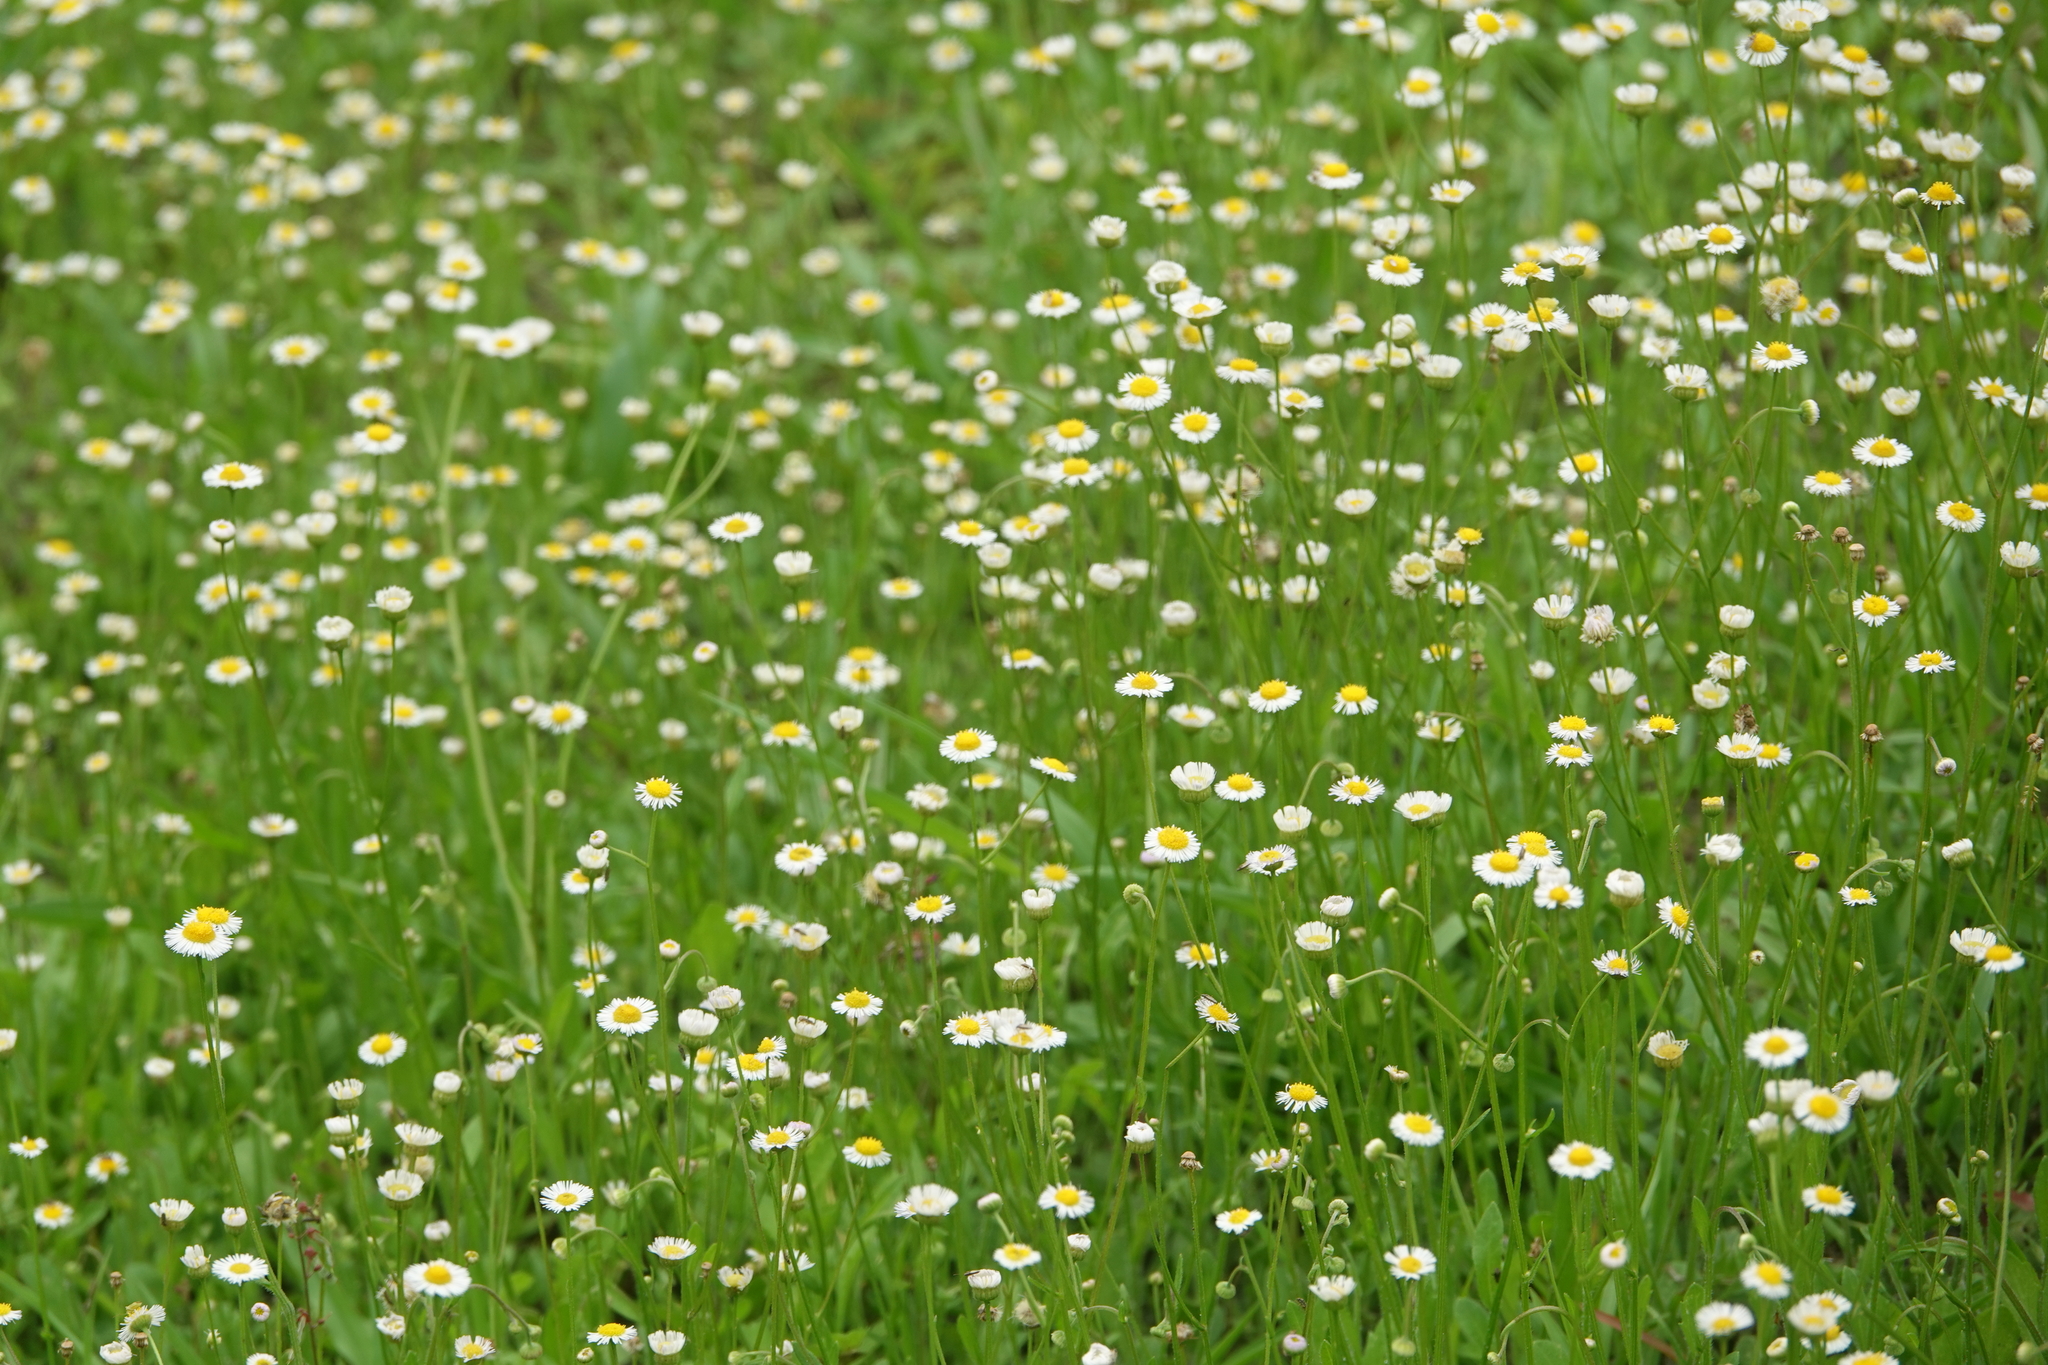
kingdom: Plantae
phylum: Tracheophyta
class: Magnoliopsida
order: Asterales
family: Asteraceae
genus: Erigeron
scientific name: Erigeron quercifolius
